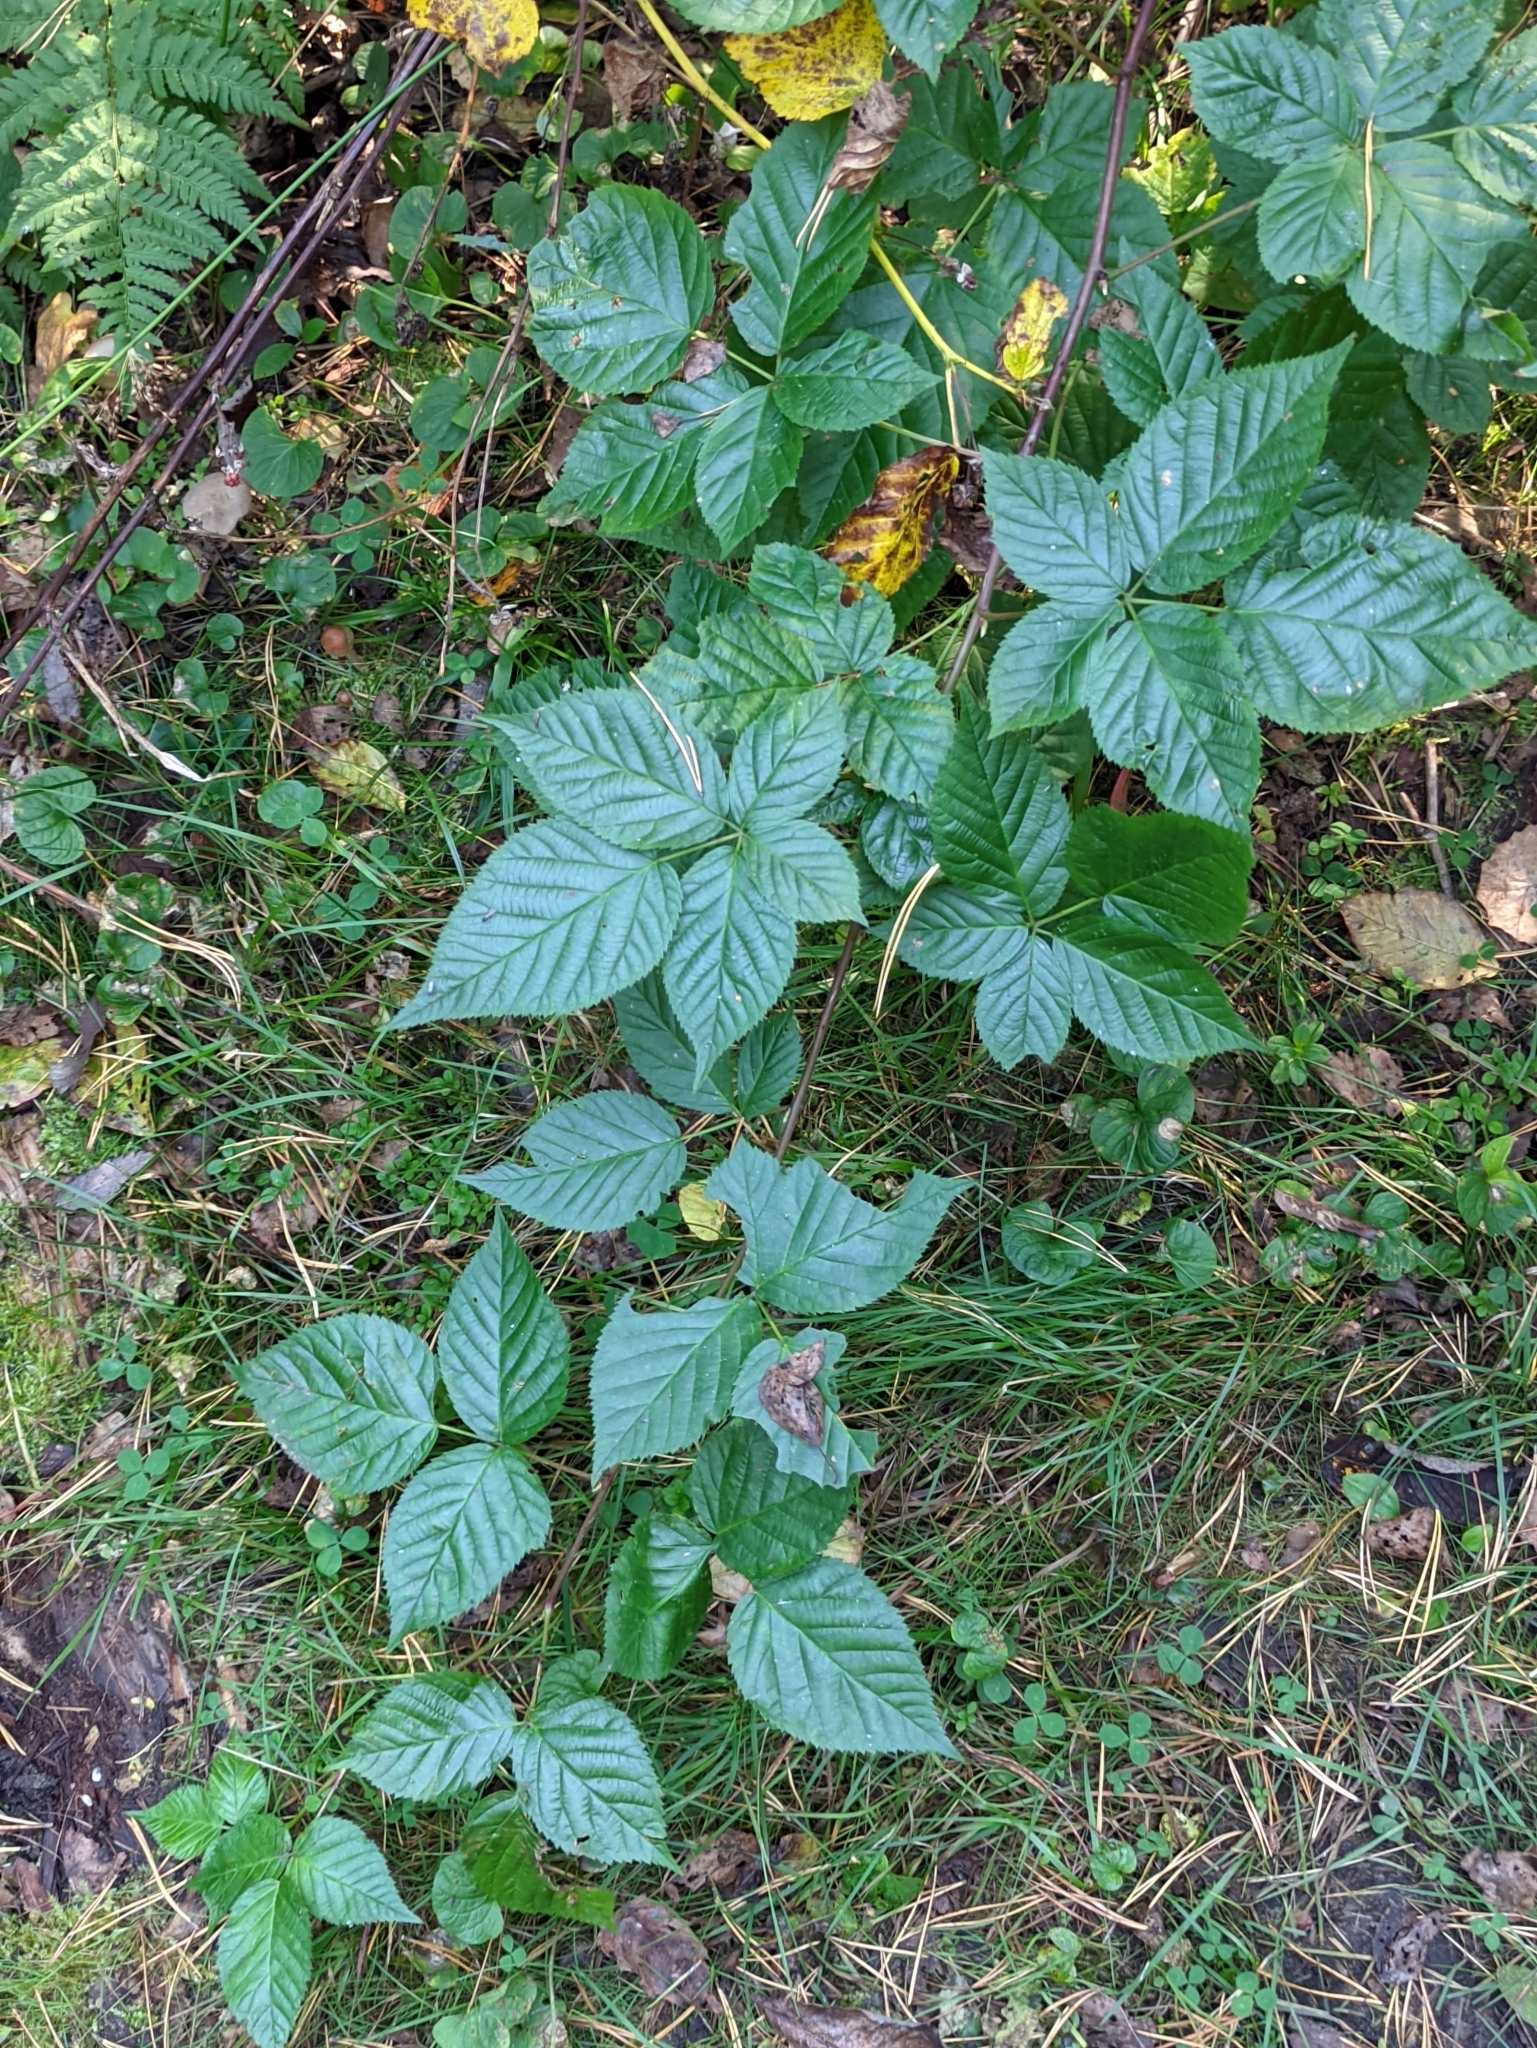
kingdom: Plantae
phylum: Tracheophyta
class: Magnoliopsida
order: Rosales
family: Rosaceae
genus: Rubus
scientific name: Rubus polonicus
